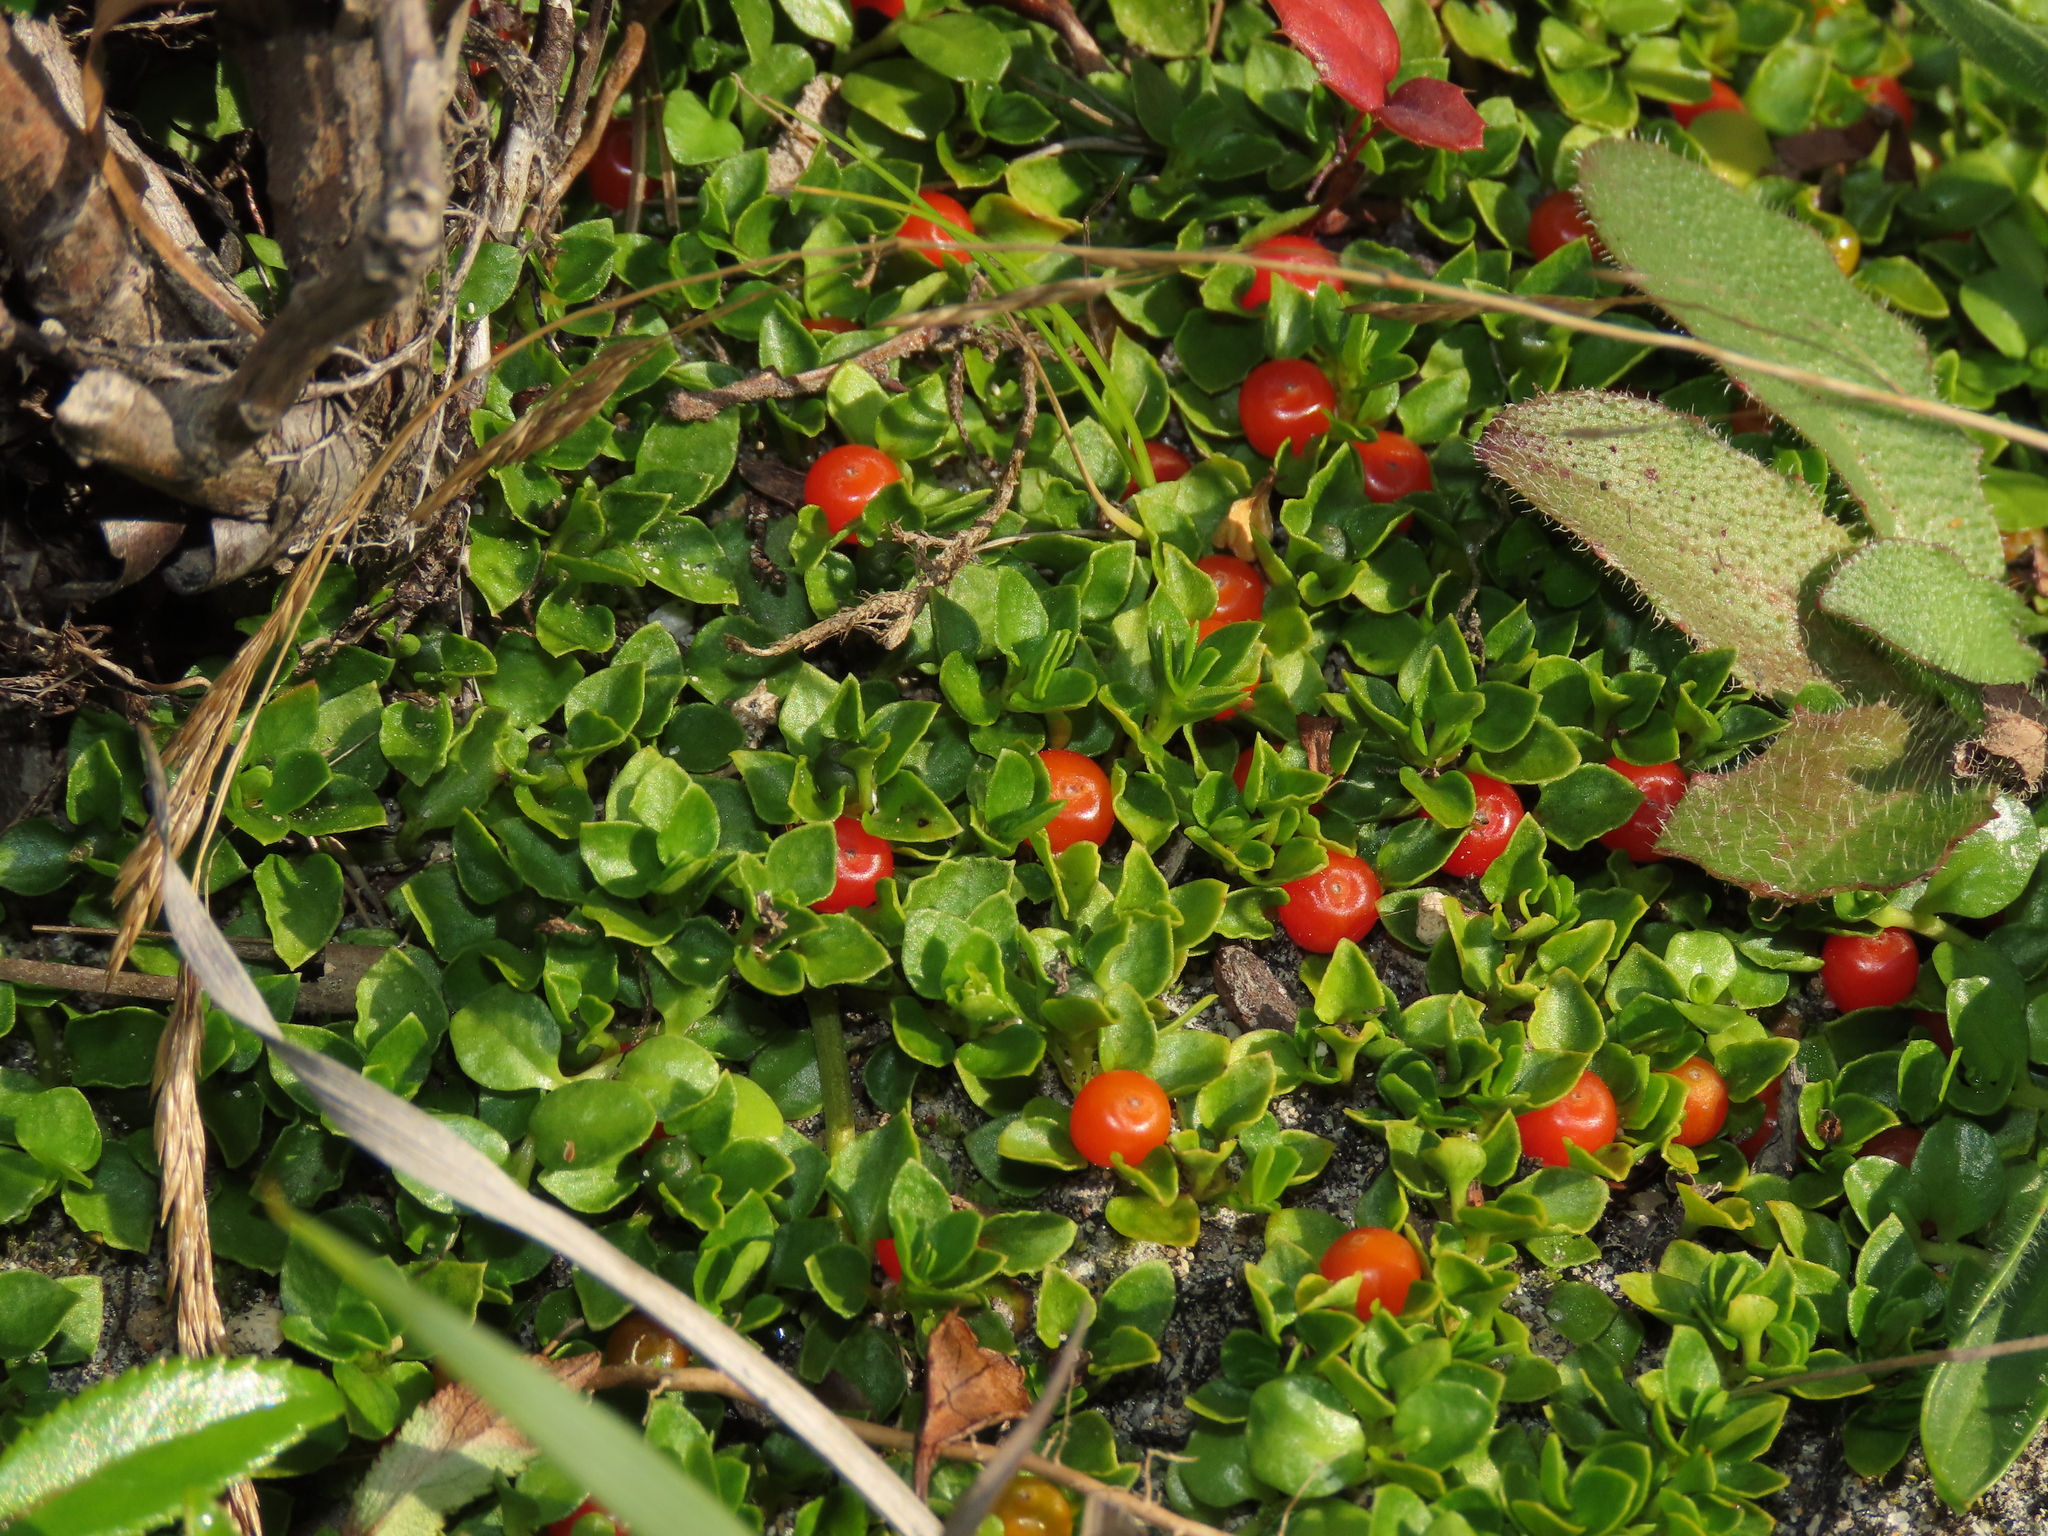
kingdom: Plantae
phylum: Tracheophyta
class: Magnoliopsida
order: Gentianales
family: Rubiaceae
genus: Nertera
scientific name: Nertera granadensis
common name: Beadplant
